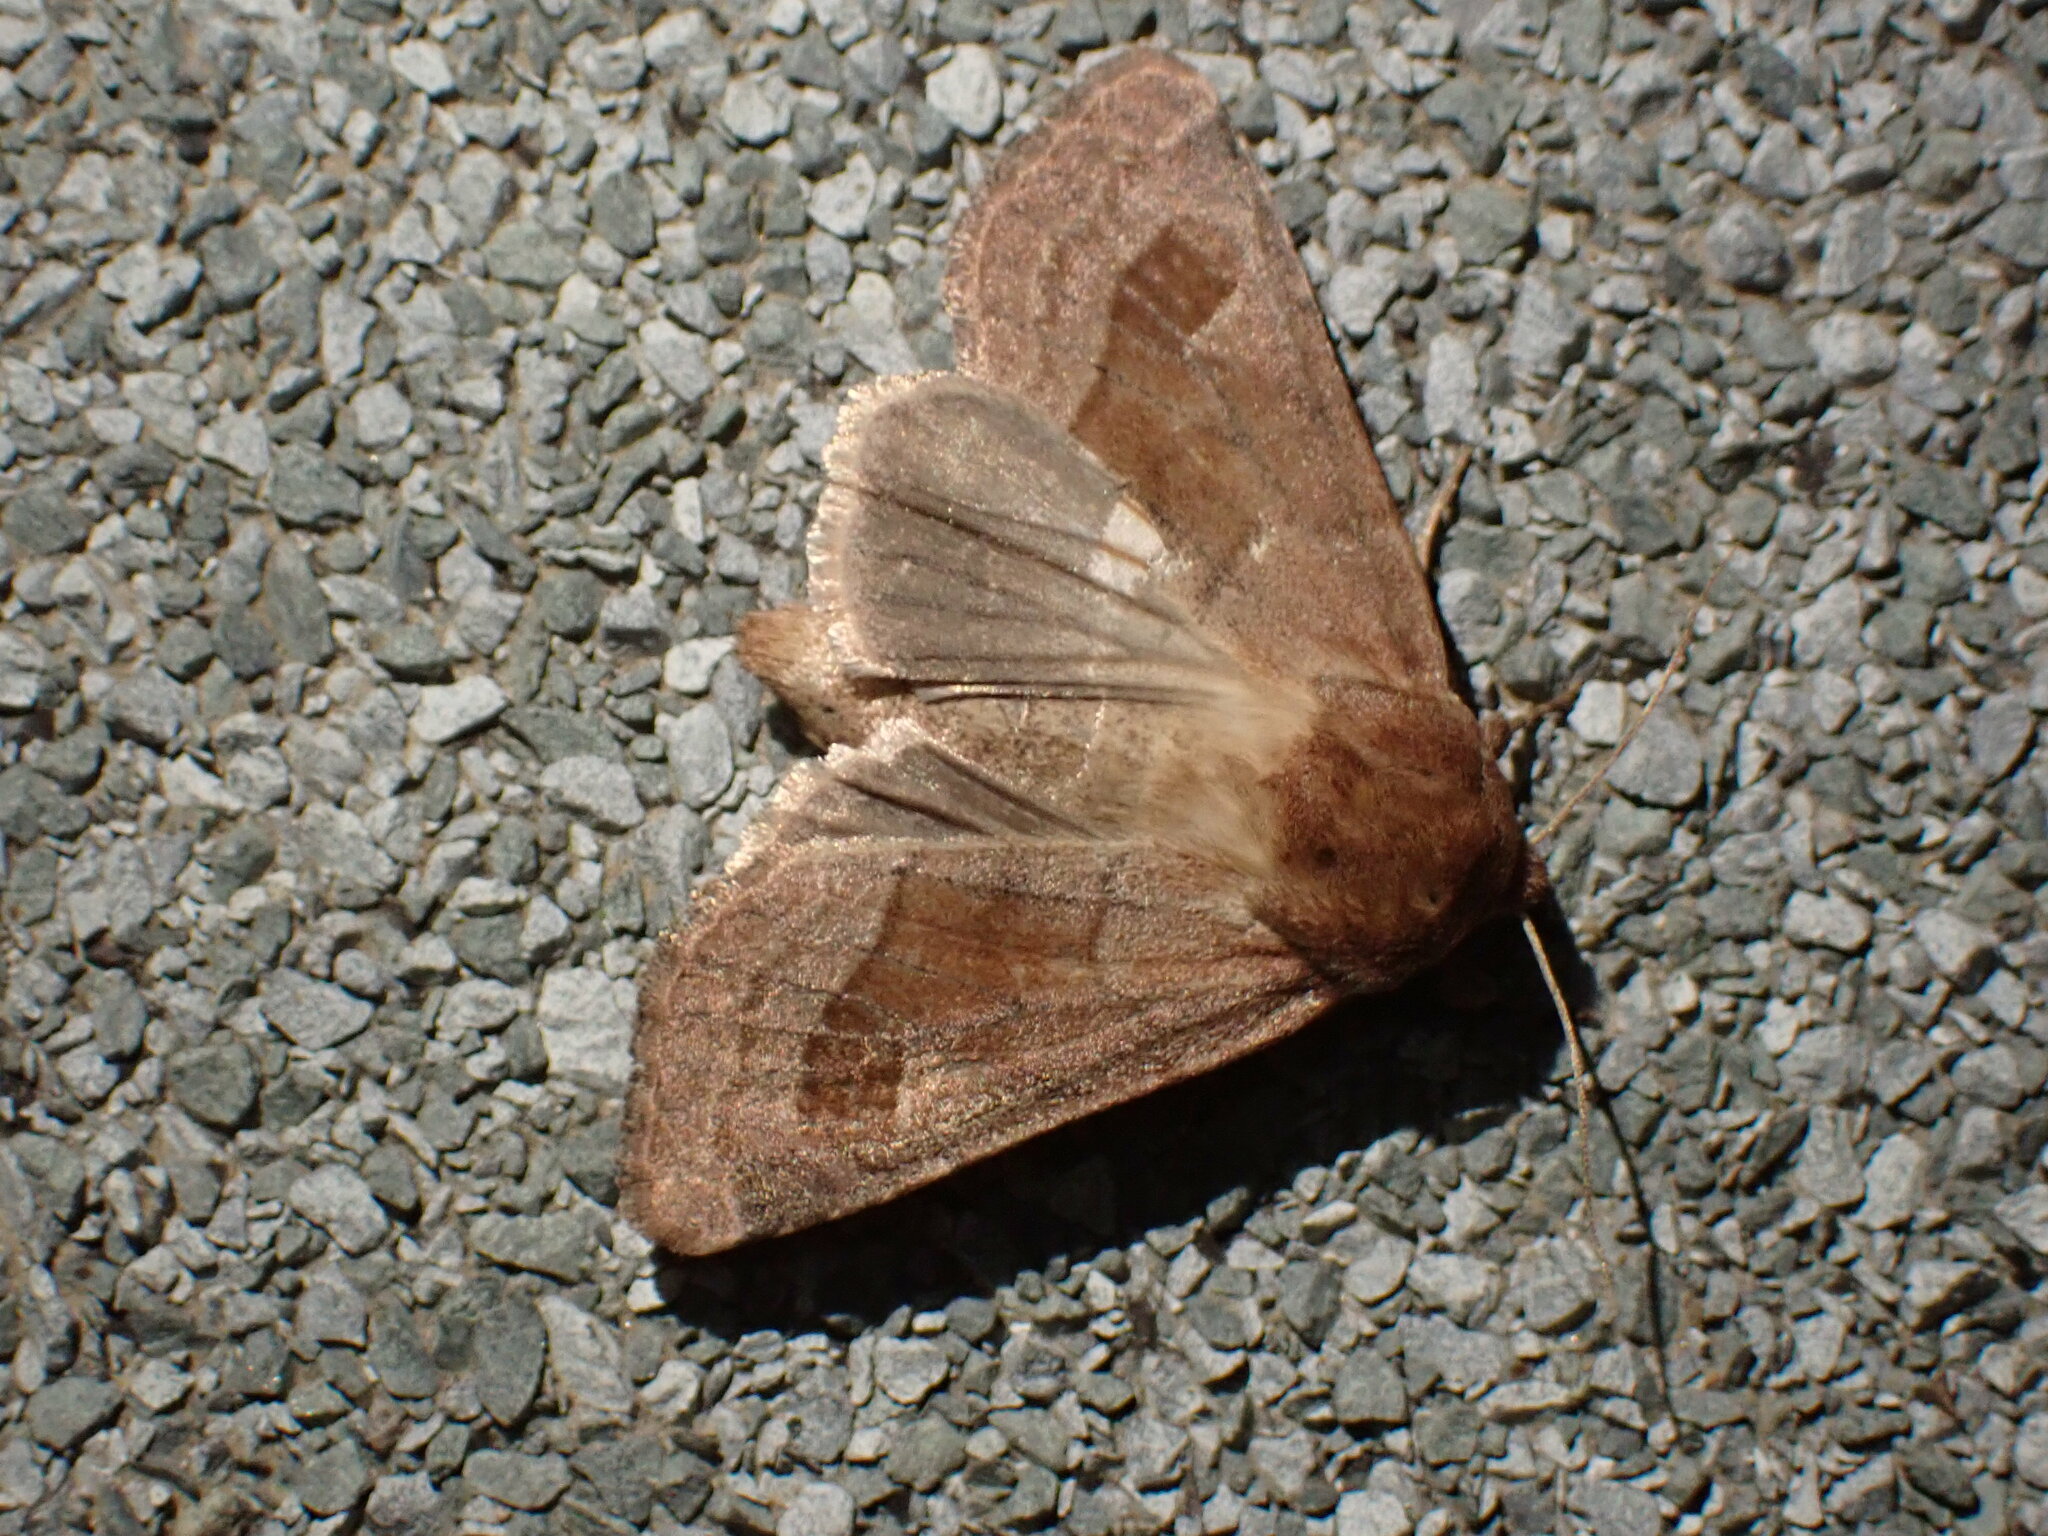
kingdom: Animalia
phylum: Arthropoda
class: Insecta
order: Lepidoptera
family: Noctuidae
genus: Nephelodes
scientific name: Nephelodes minians
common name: Bronzed cutworm
